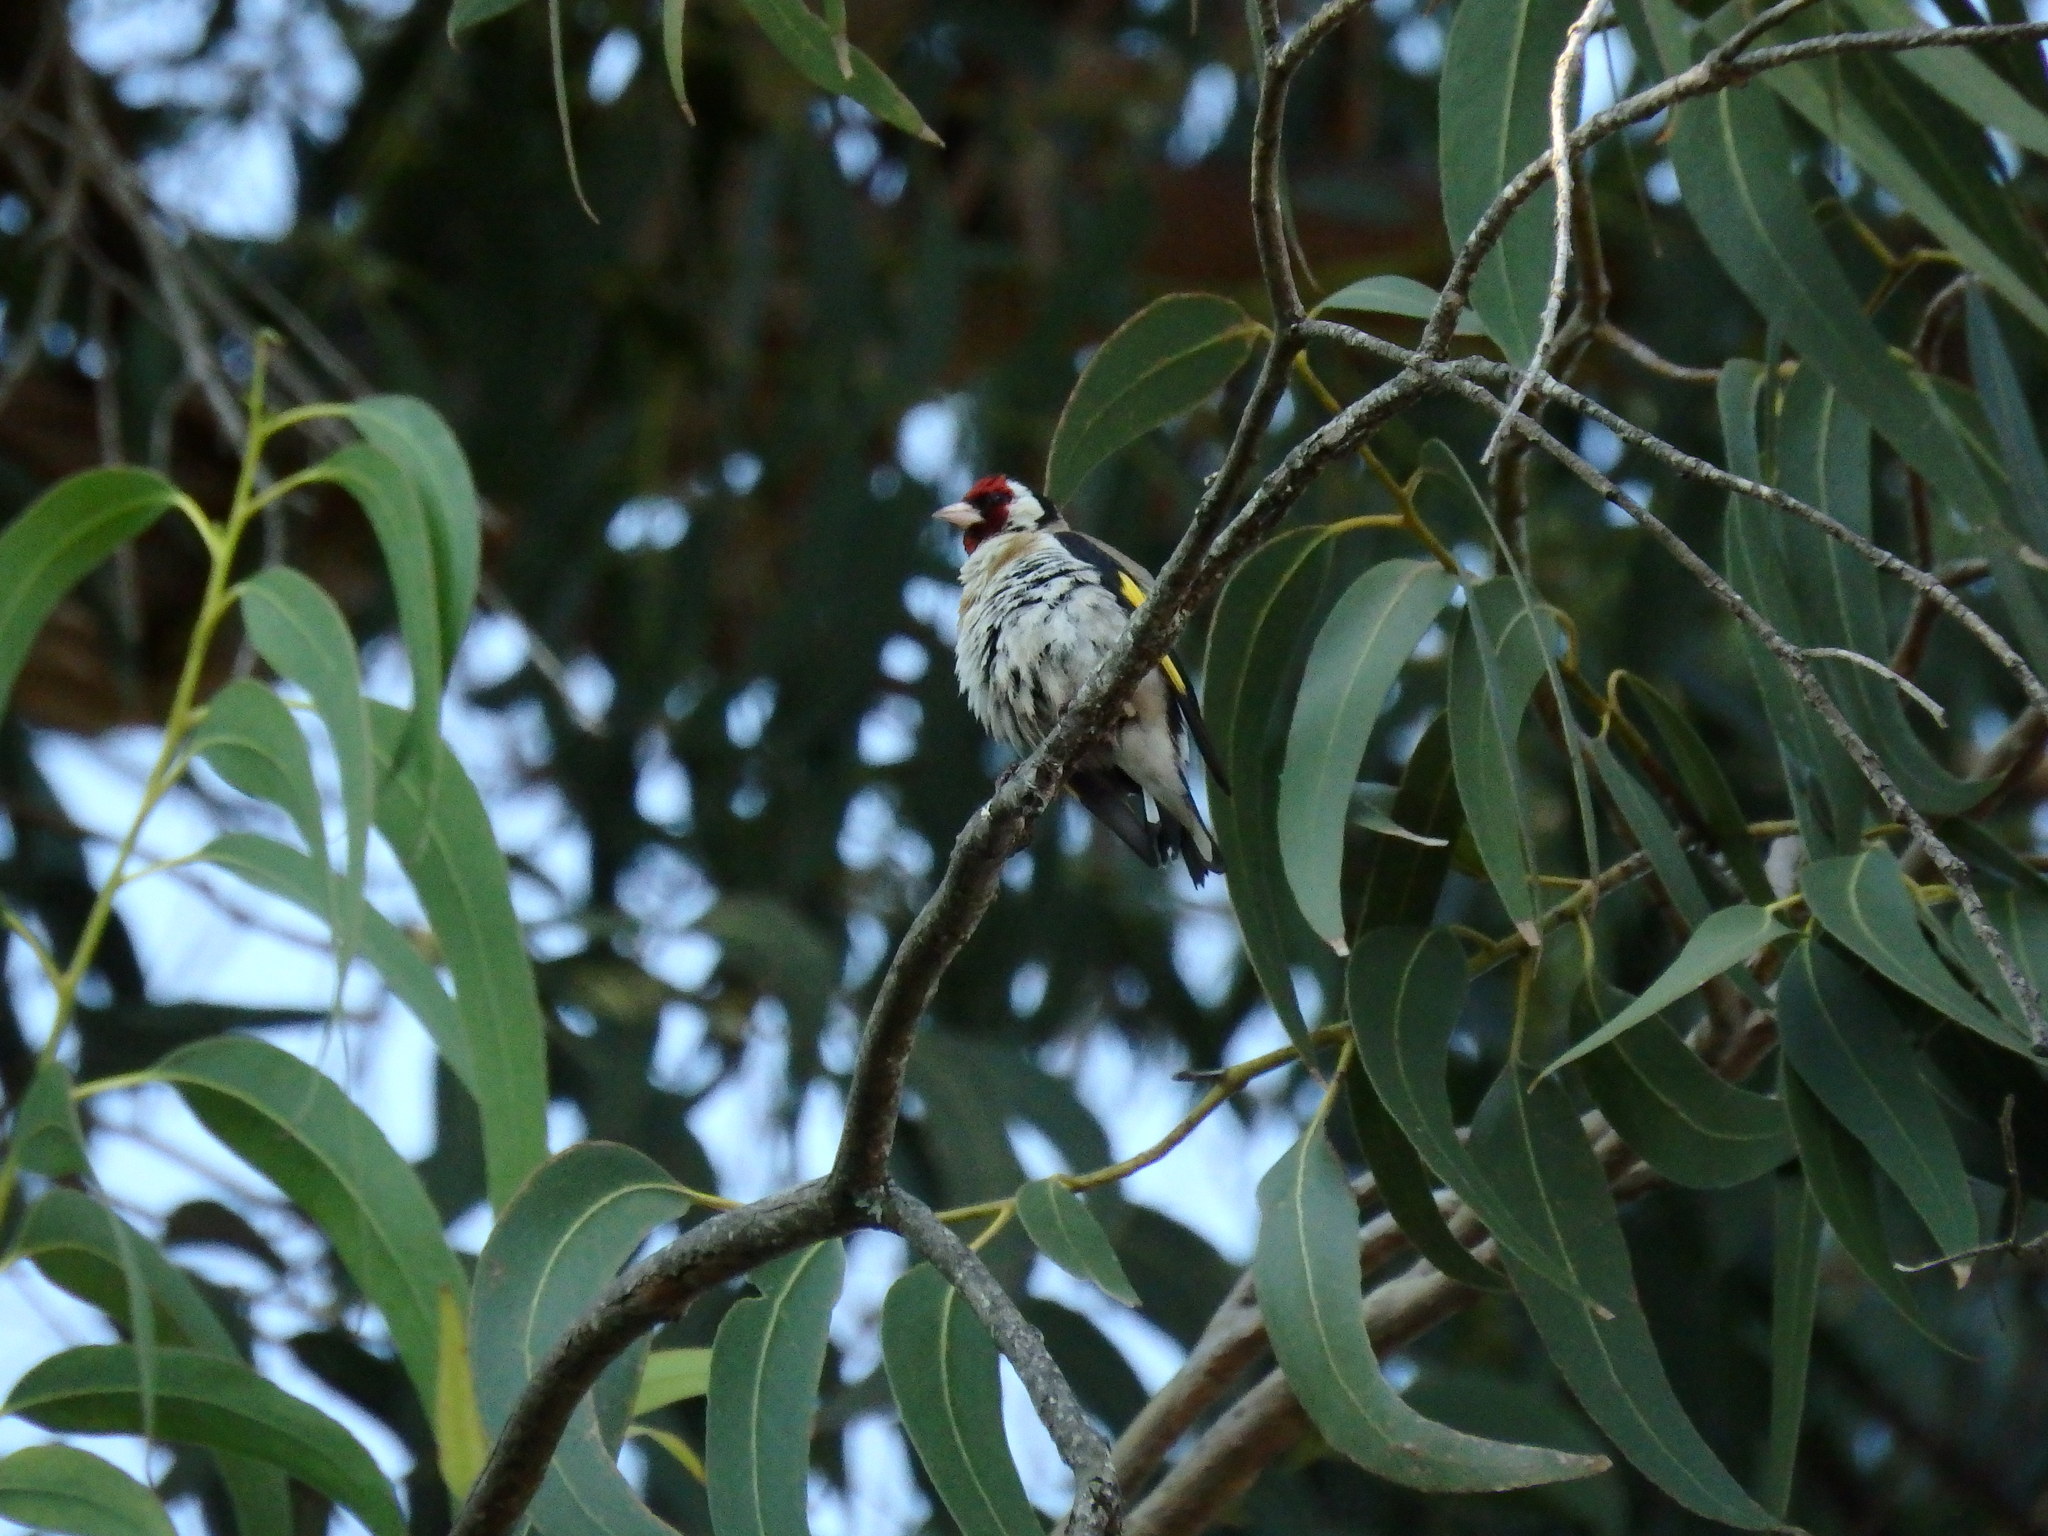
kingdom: Animalia
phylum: Chordata
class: Aves
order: Passeriformes
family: Fringillidae
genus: Carduelis
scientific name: Carduelis carduelis
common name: European goldfinch
